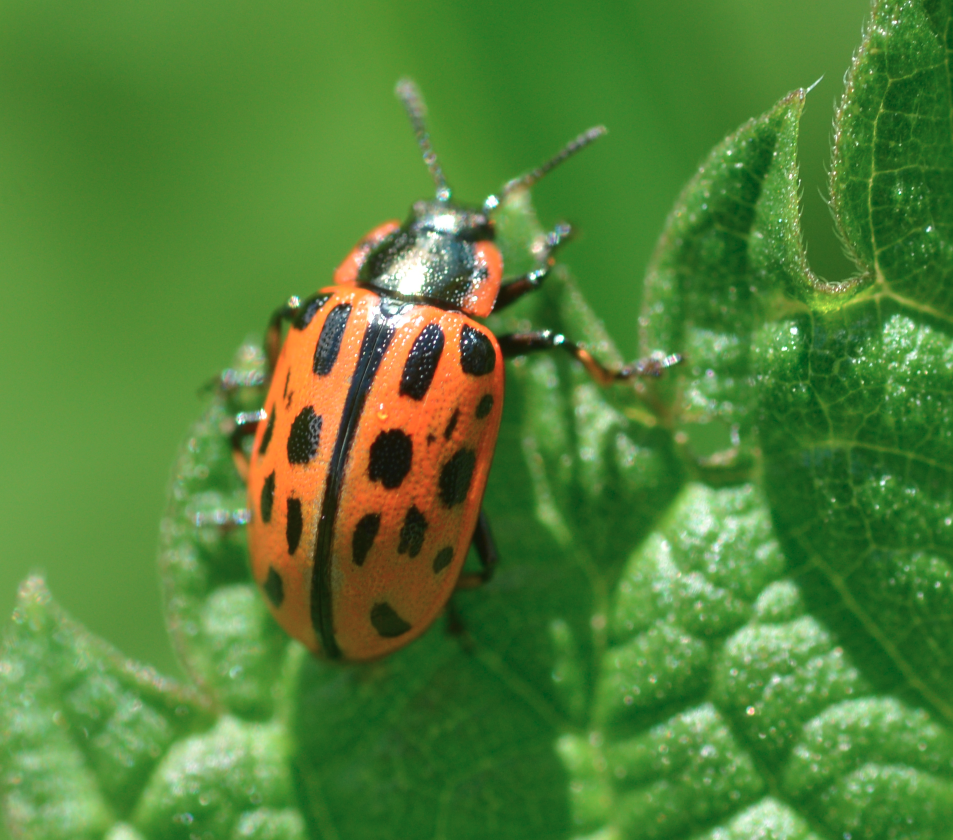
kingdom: Animalia
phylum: Arthropoda
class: Insecta
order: Coleoptera
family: Chrysomelidae
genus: Chrysomela
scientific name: Chrysomela vigintipunctata
